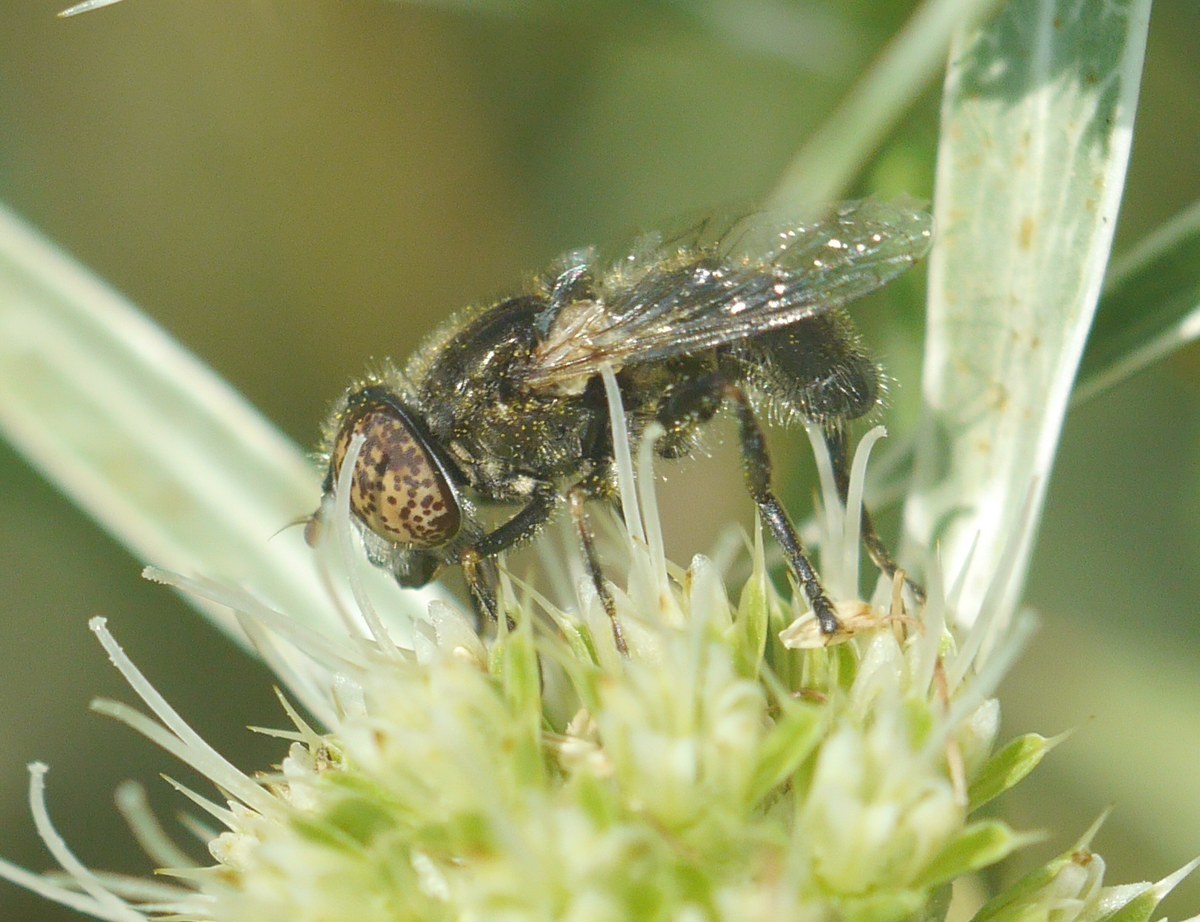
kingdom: Animalia
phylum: Arthropoda
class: Insecta
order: Diptera
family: Syrphidae
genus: Eristalinus
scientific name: Eristalinus aeneus
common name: Syrphid fly
